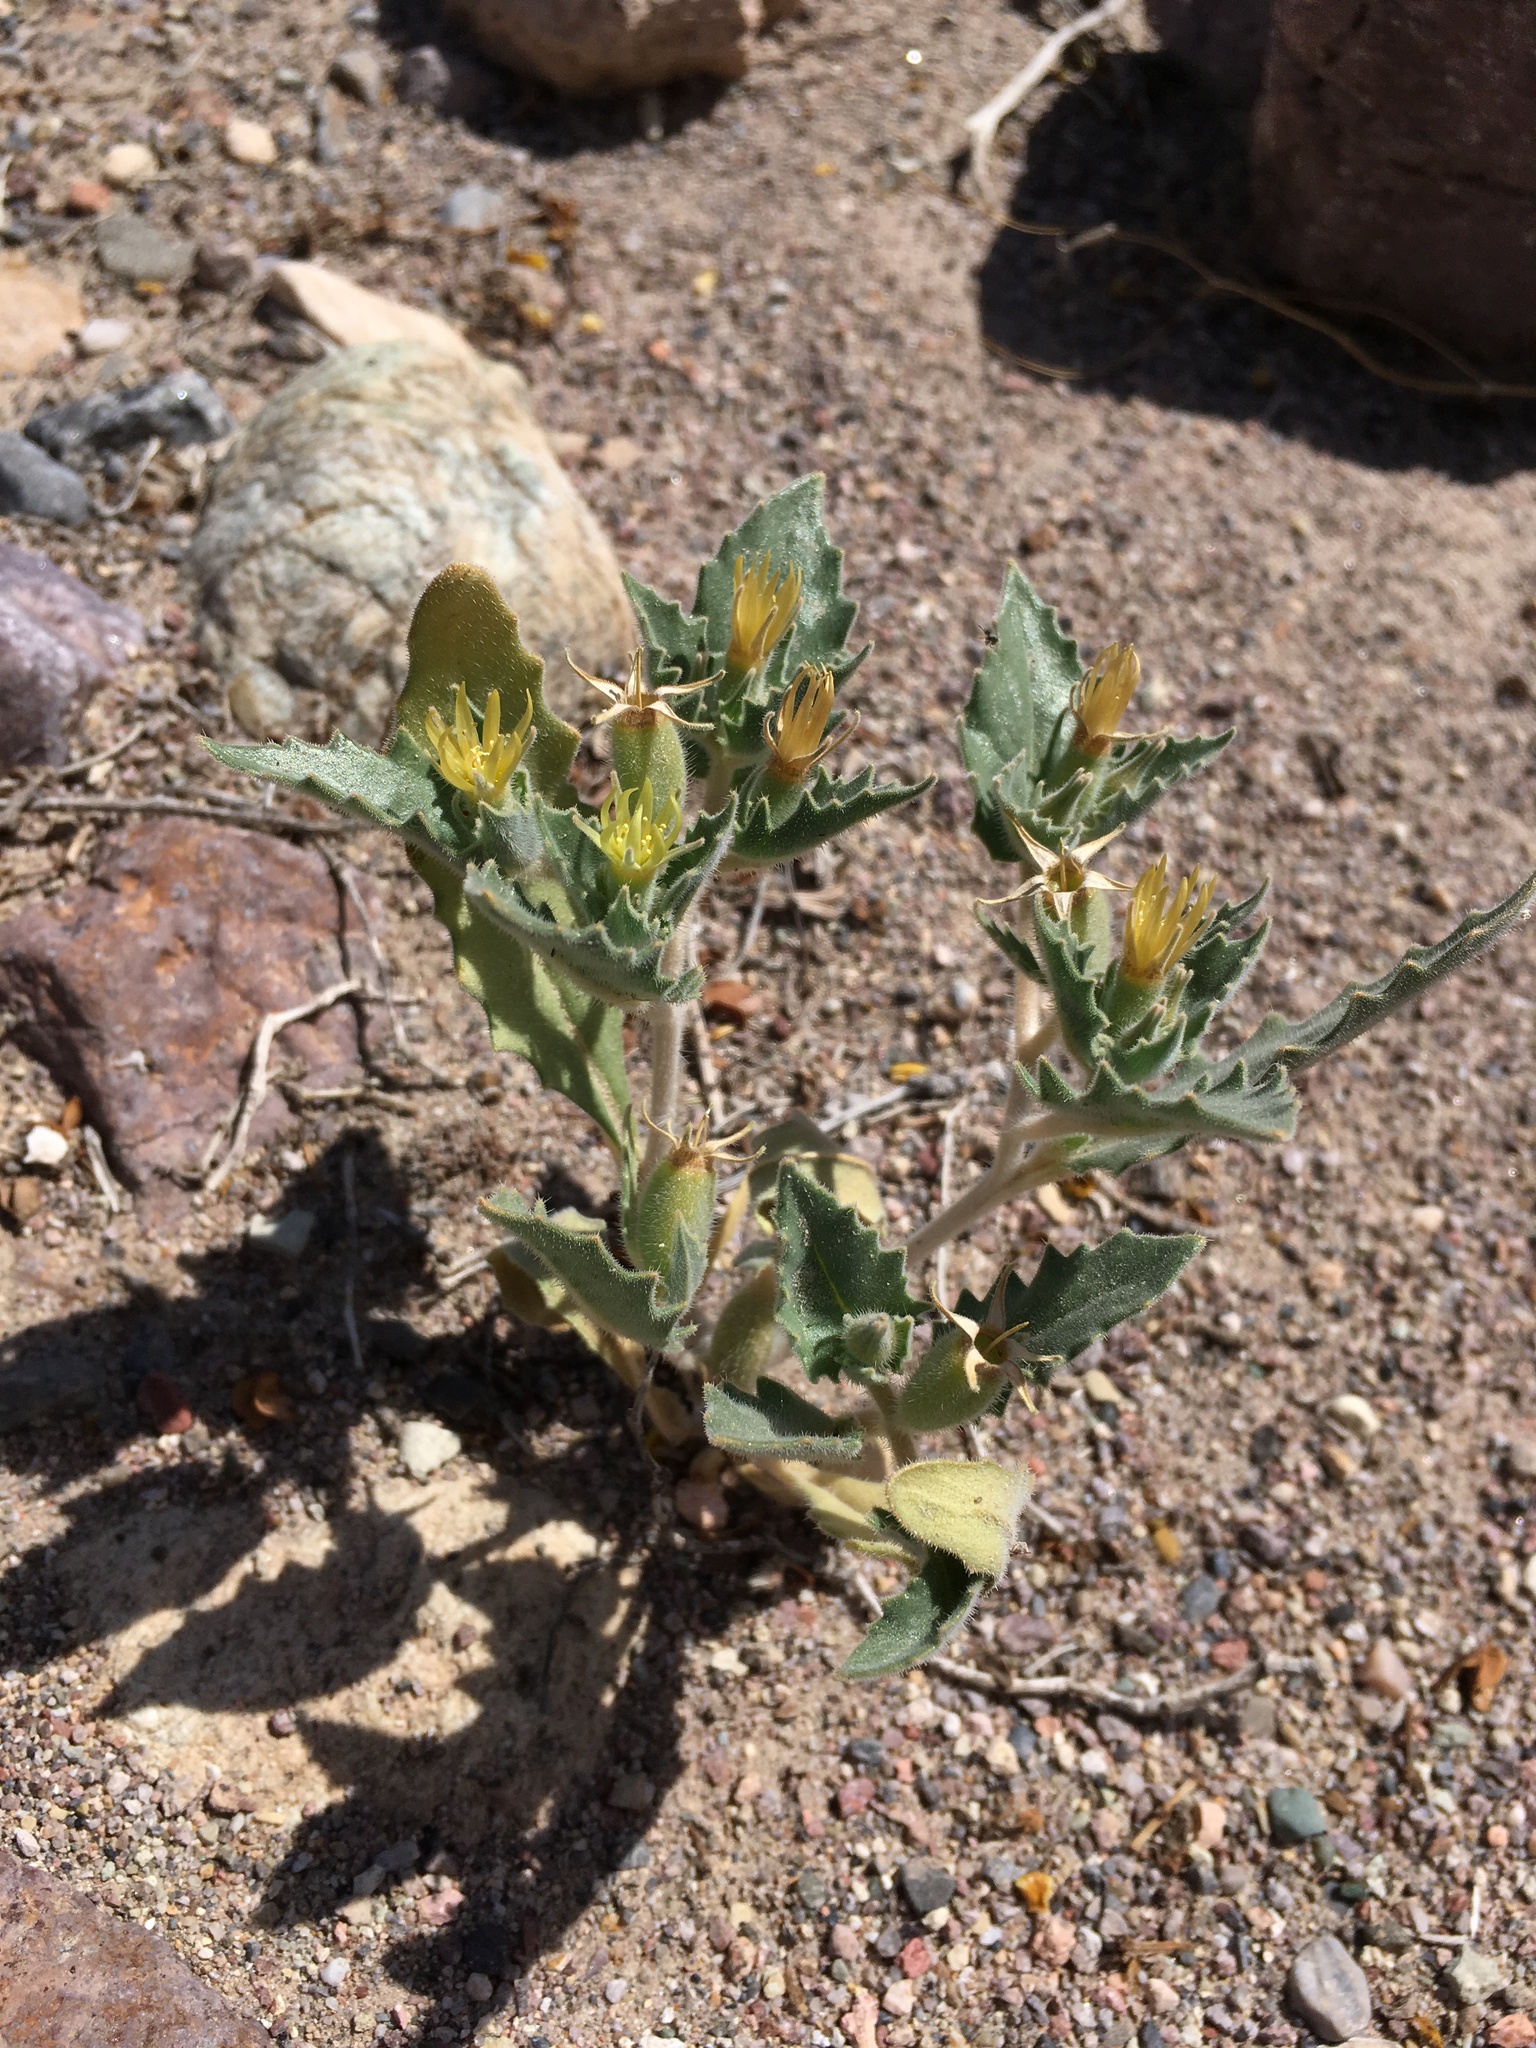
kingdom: Plantae
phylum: Tracheophyta
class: Magnoliopsida
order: Cornales
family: Loasaceae
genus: Mentzelia
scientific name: Mentzelia reflexa
